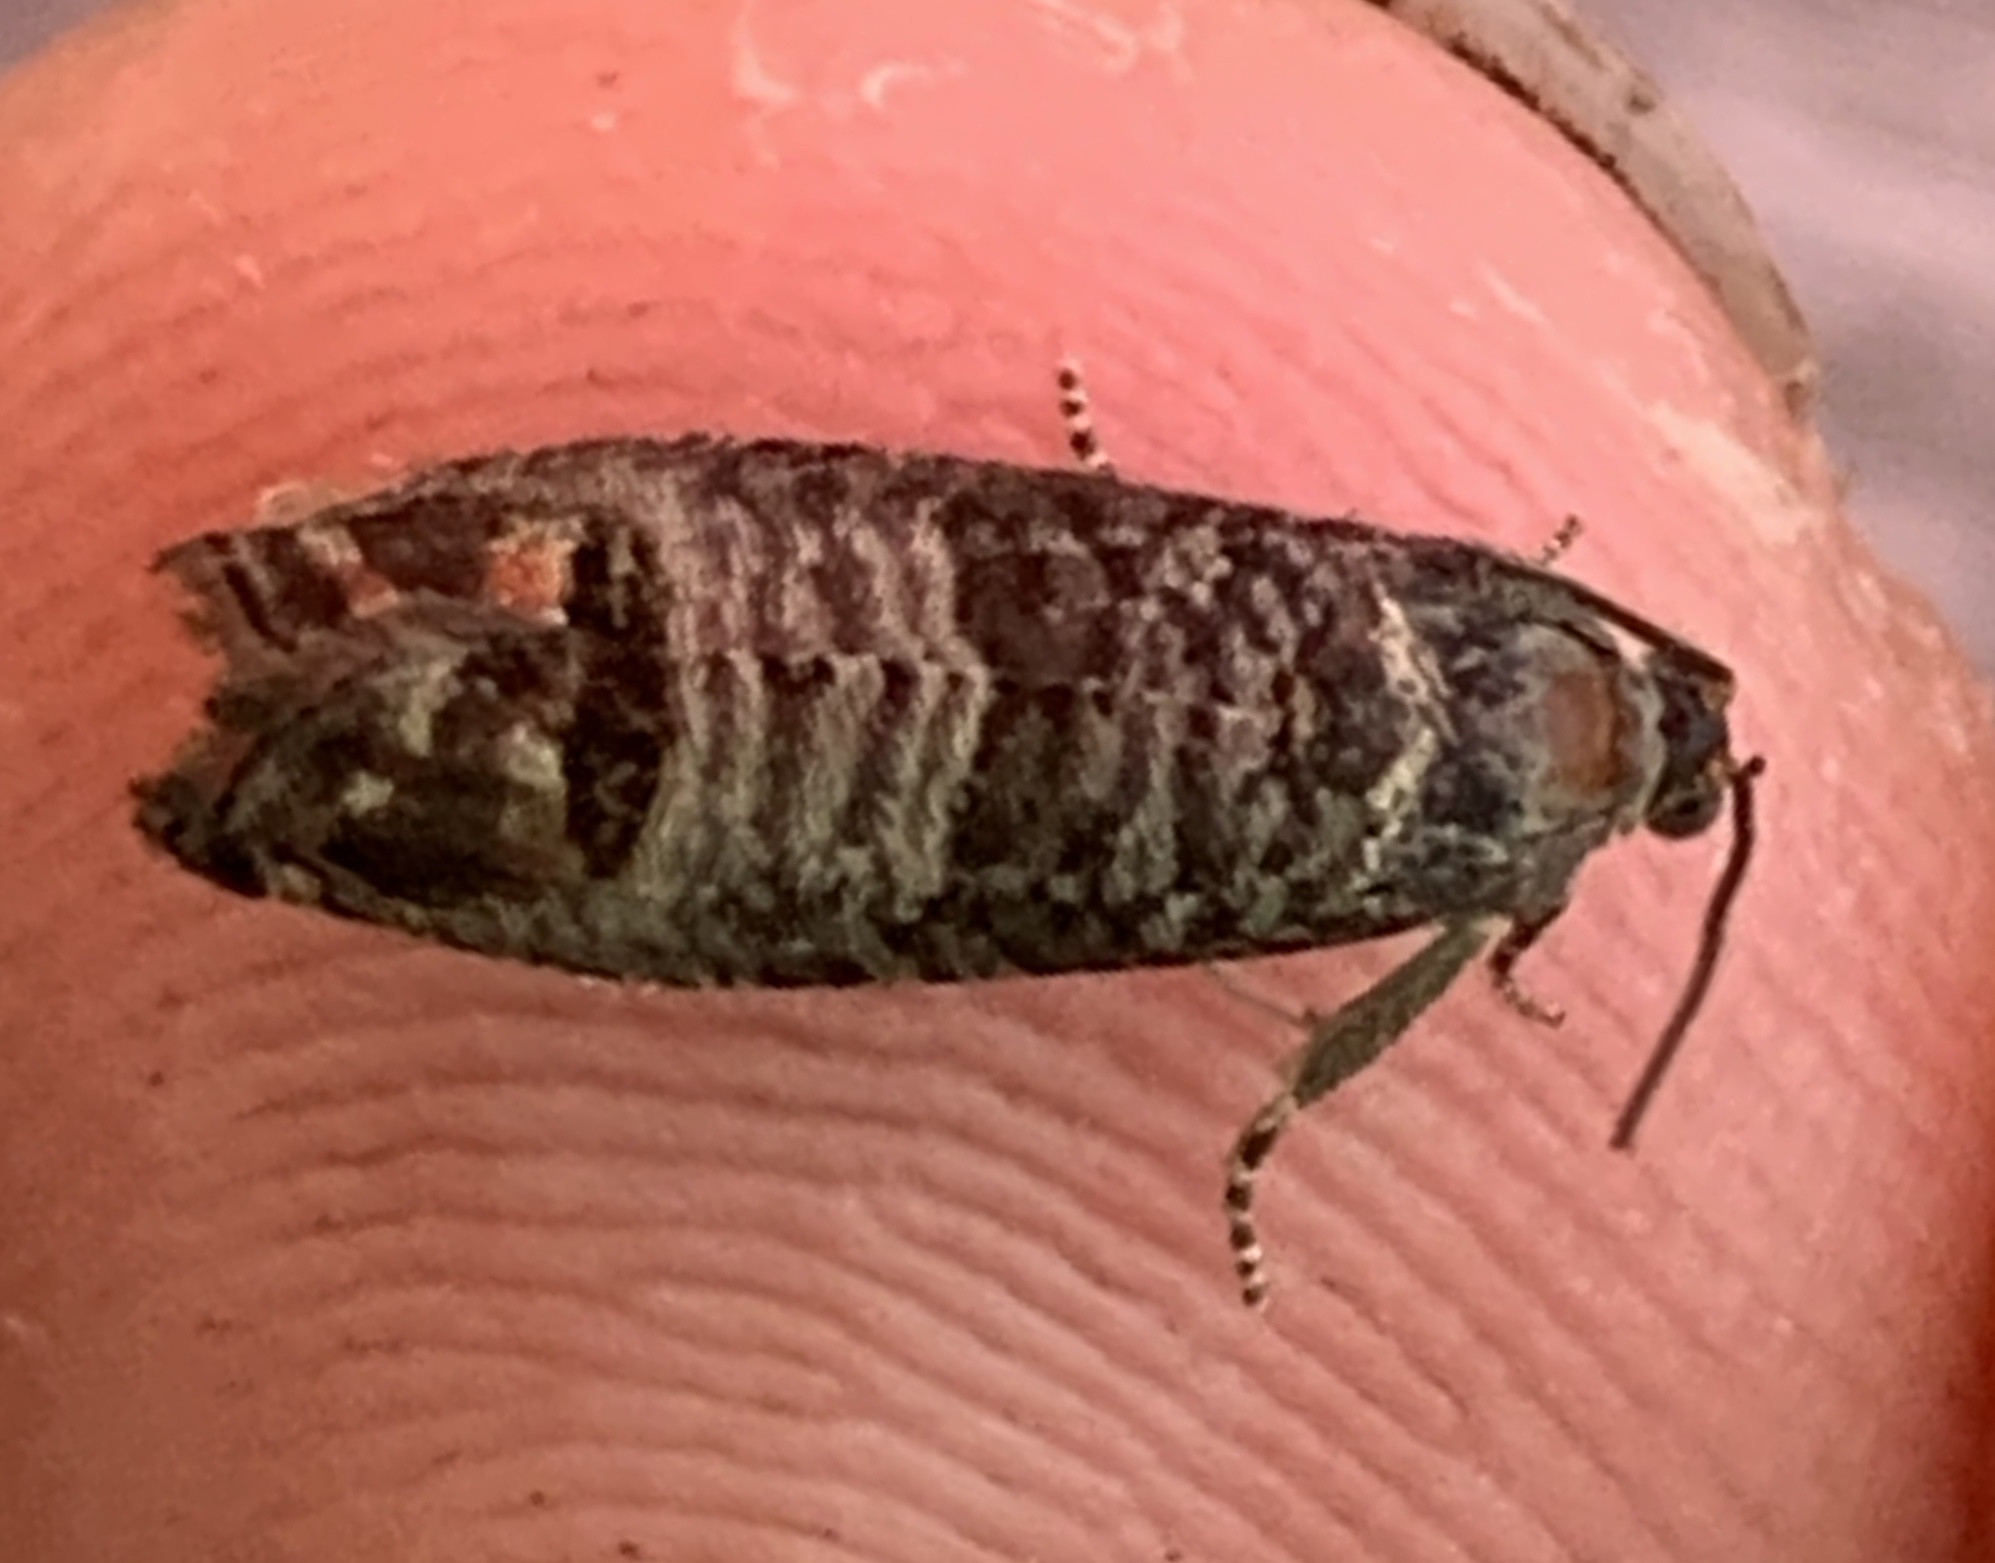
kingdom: Animalia
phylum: Arthropoda
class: Insecta
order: Lepidoptera
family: Tortricidae
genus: Cydia
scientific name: Cydia pomonella
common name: Codling moth
